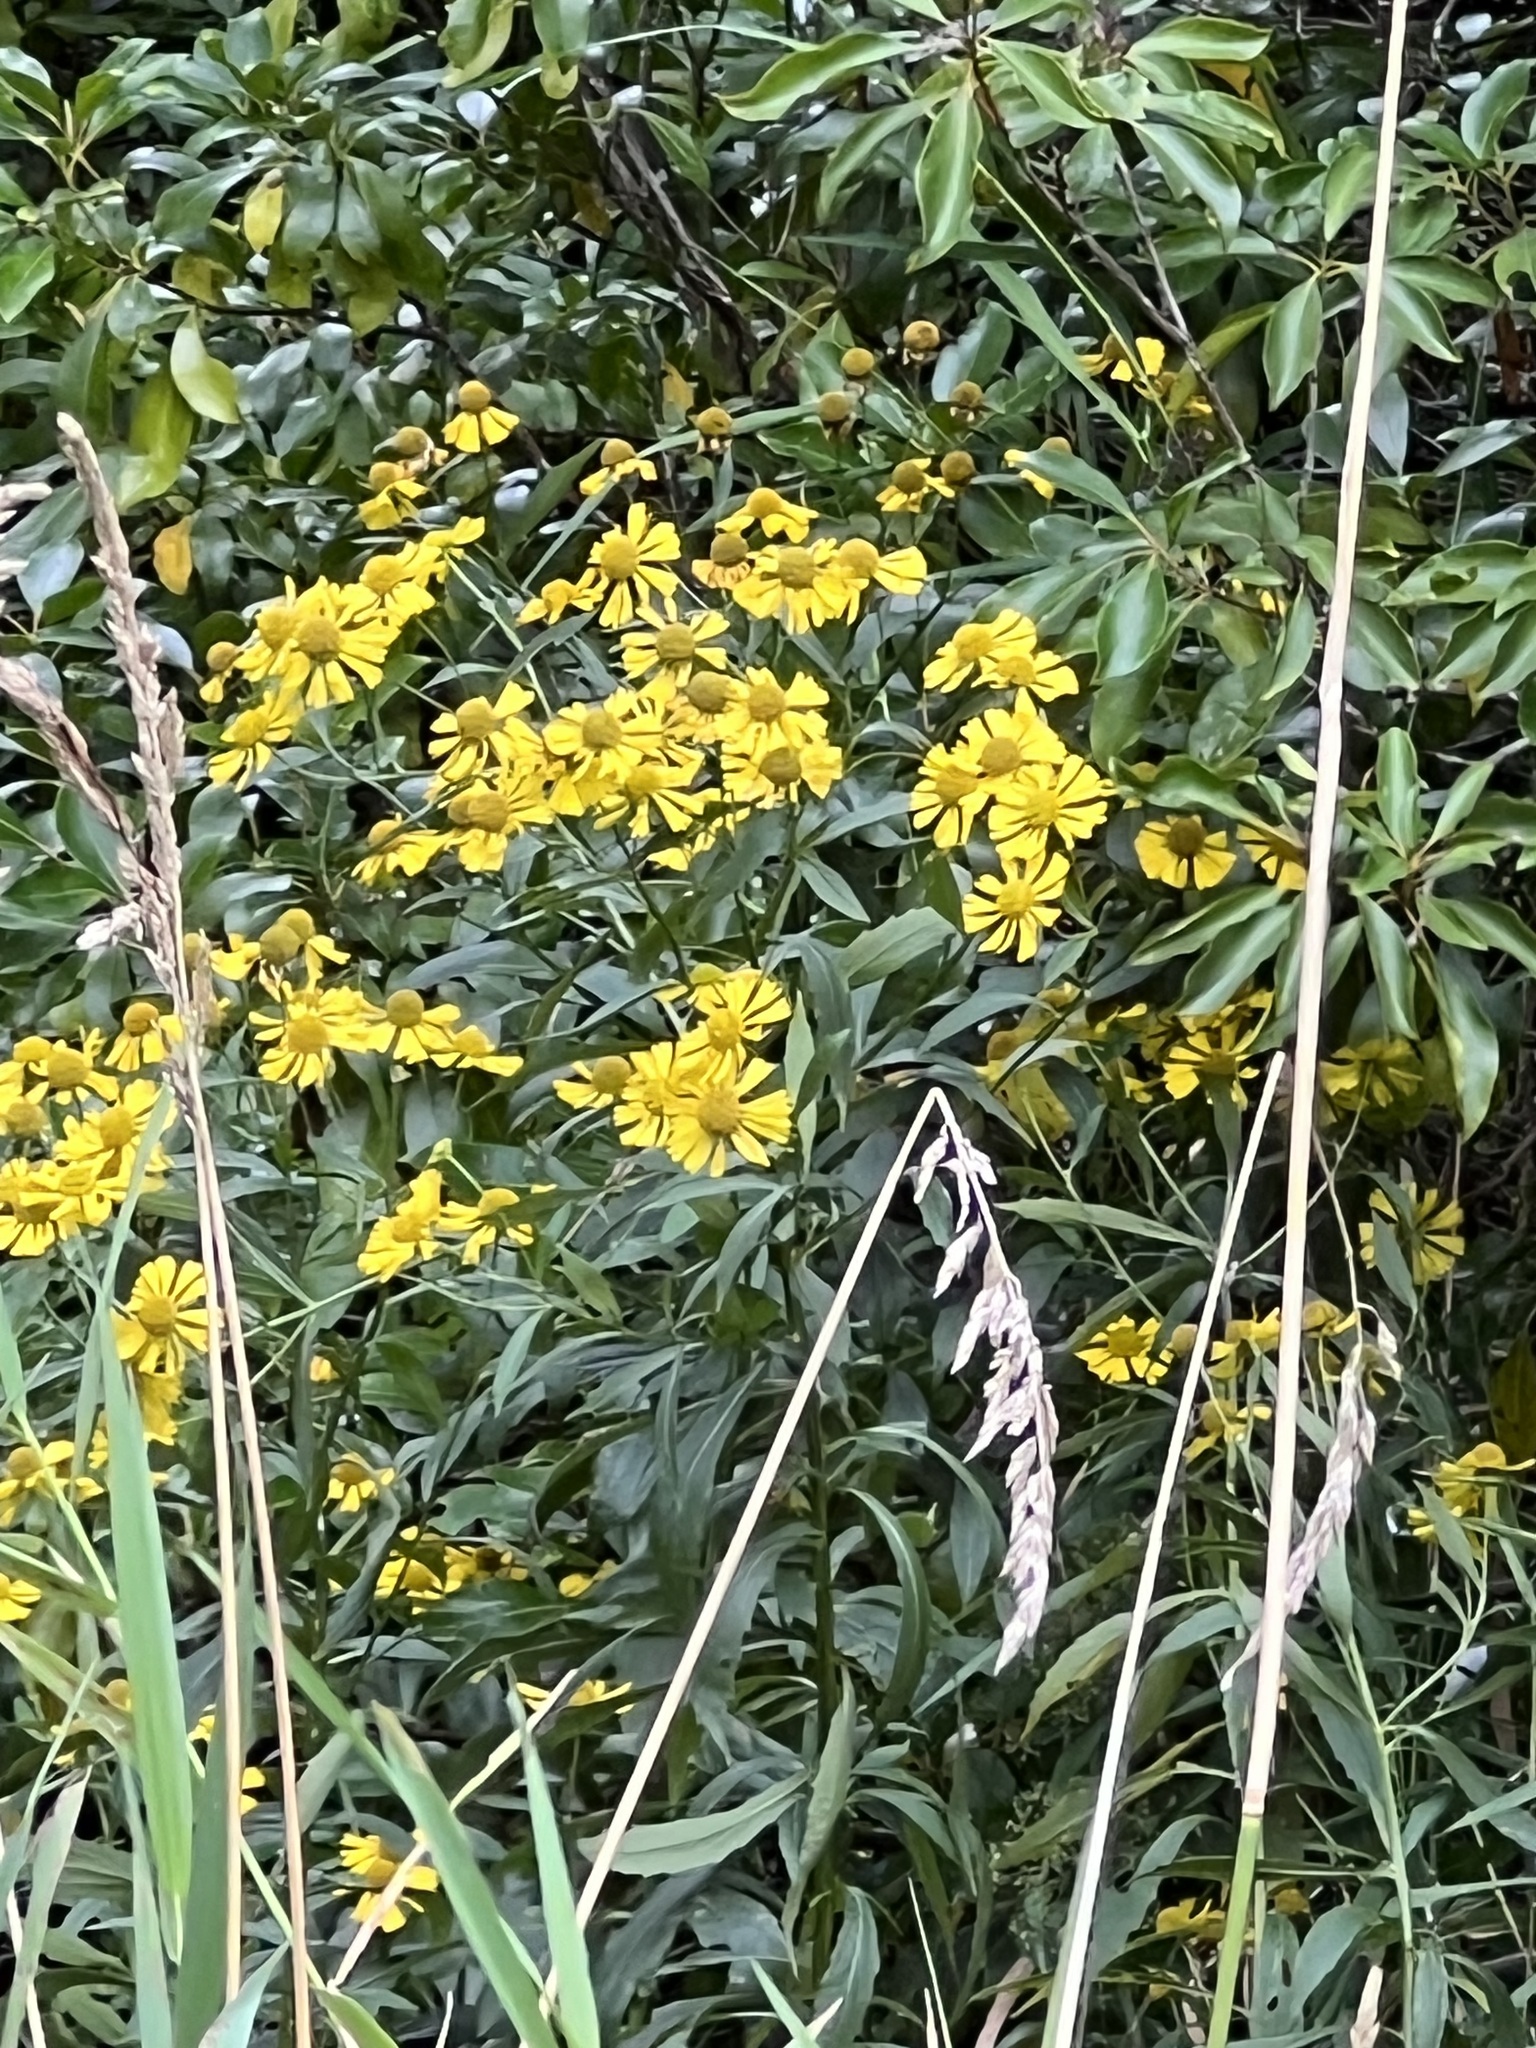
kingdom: Plantae
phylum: Tracheophyta
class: Magnoliopsida
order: Asterales
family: Asteraceae
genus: Helenium
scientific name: Helenium autumnale
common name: Sneezeweed
